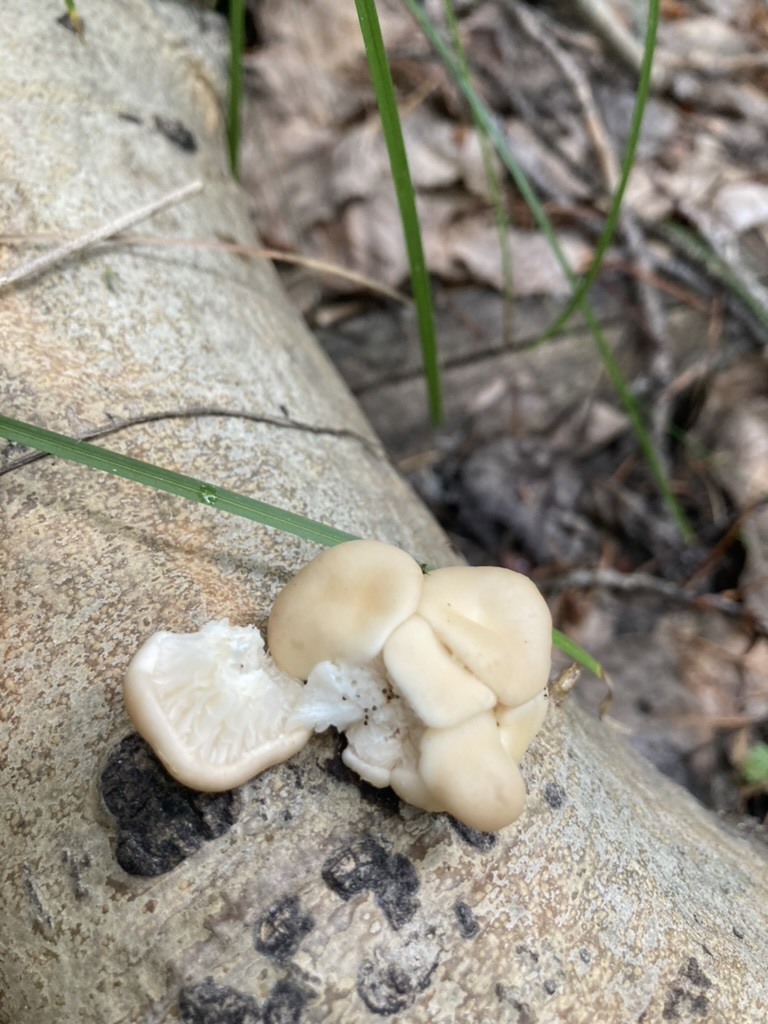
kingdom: Fungi
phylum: Basidiomycota
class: Agaricomycetes
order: Agaricales
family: Pleurotaceae
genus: Pleurotus
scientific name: Pleurotus populinus
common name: Aspen oyster mushroom
